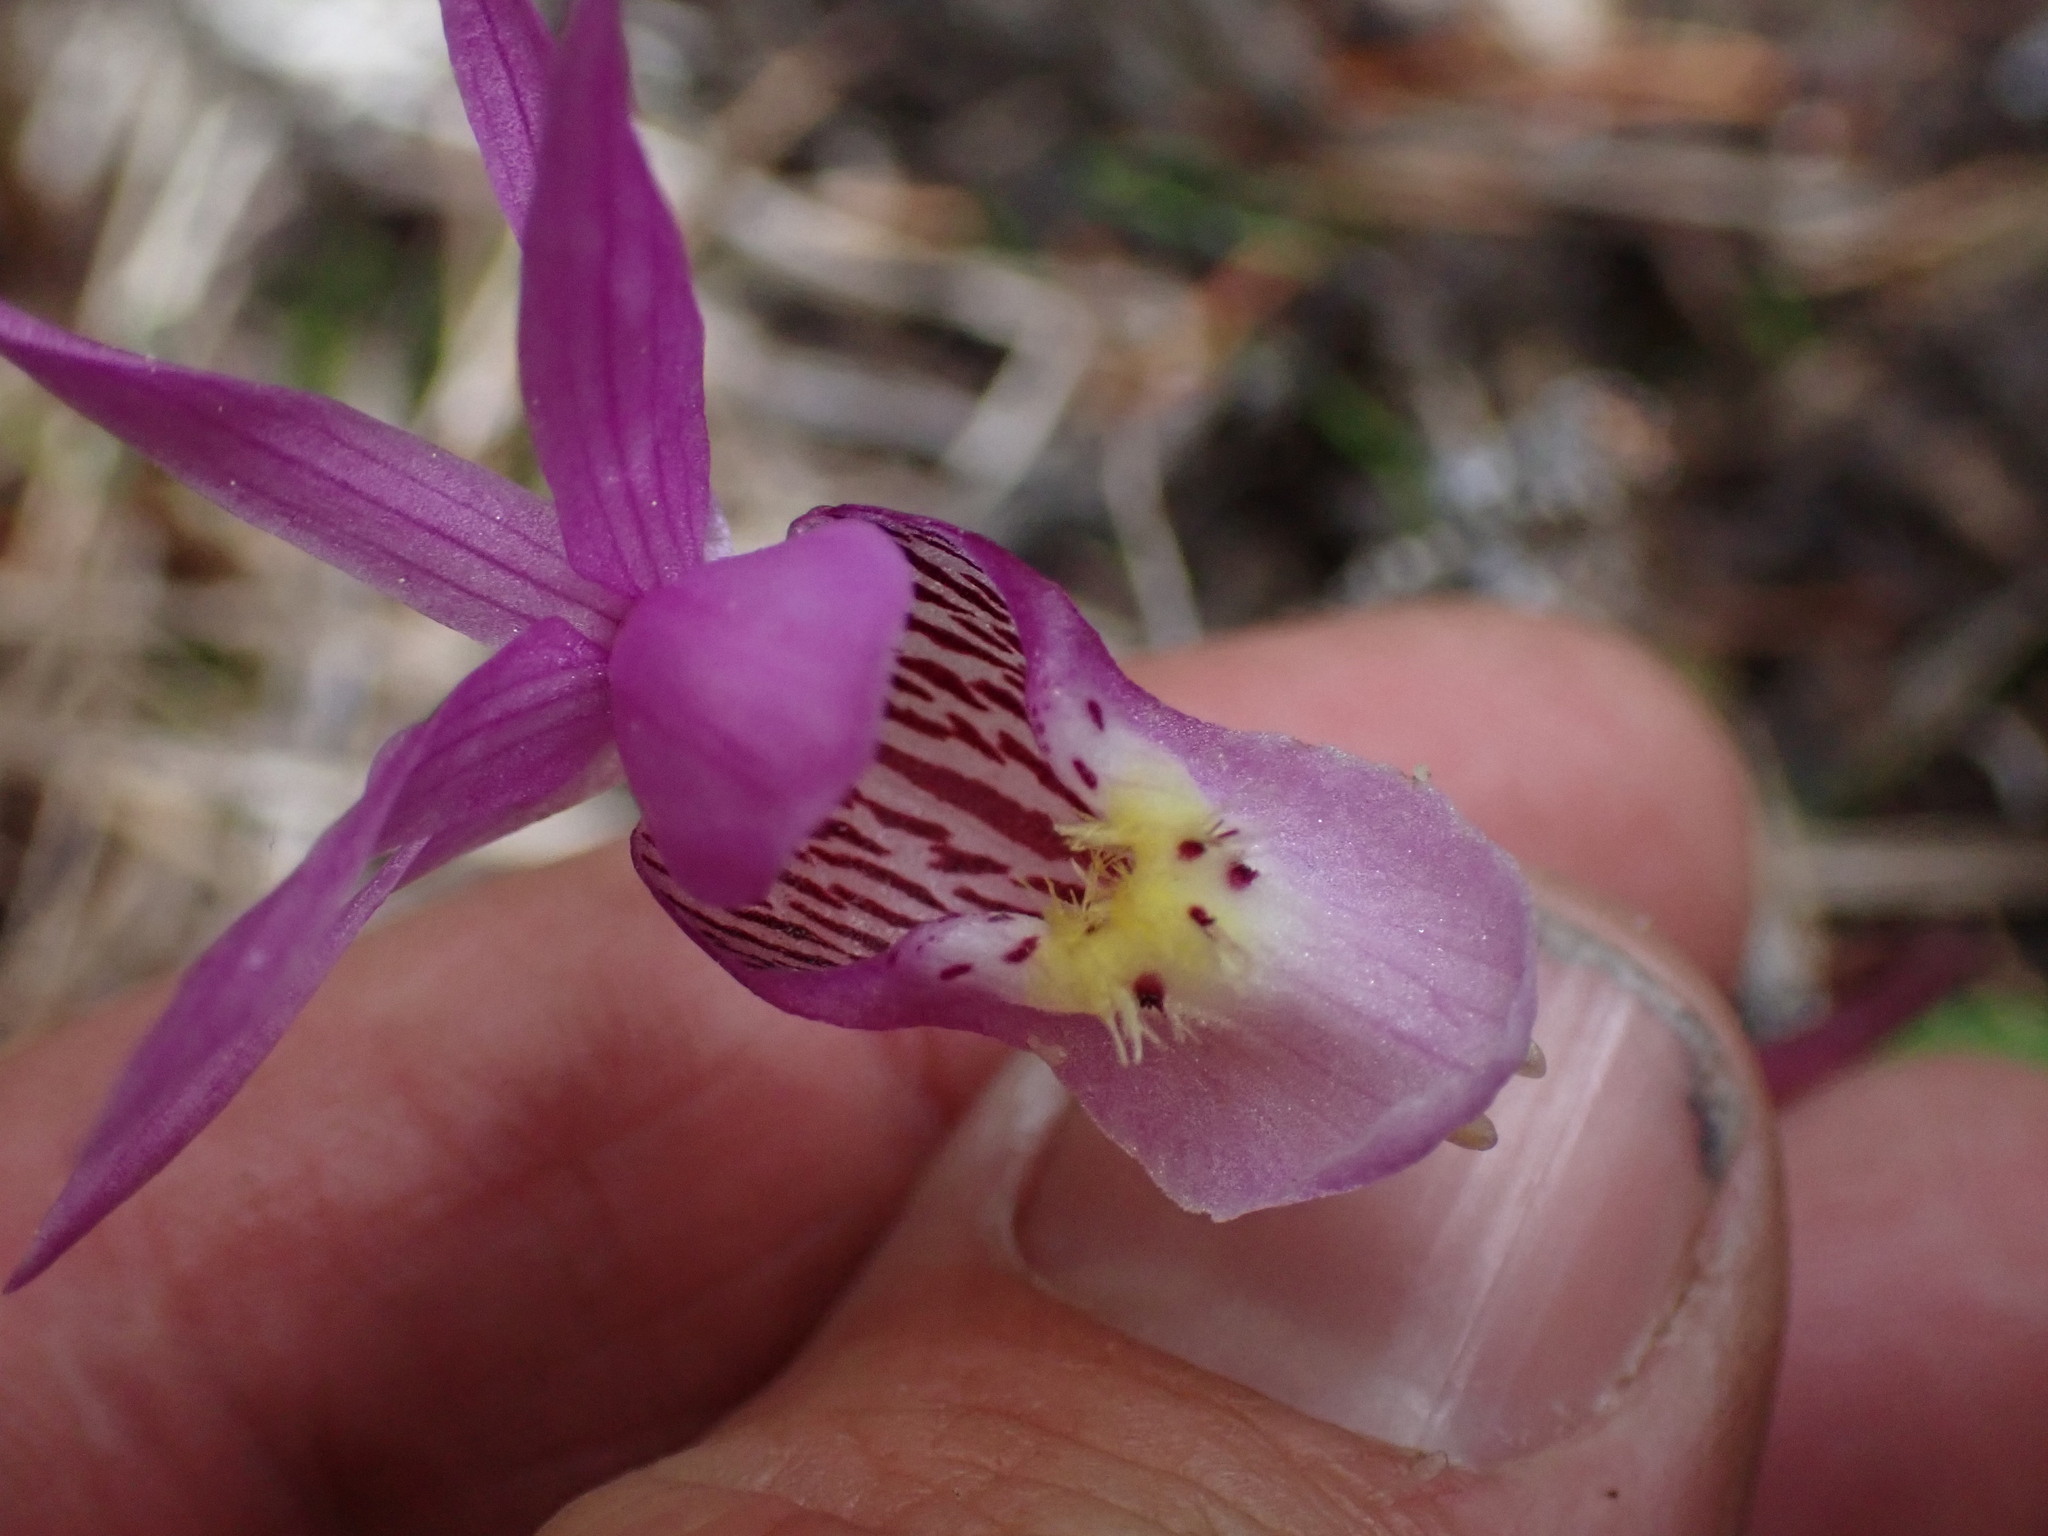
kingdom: Plantae
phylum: Tracheophyta
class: Liliopsida
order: Asparagales
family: Orchidaceae
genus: Calypso
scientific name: Calypso bulbosa
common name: Calypso
